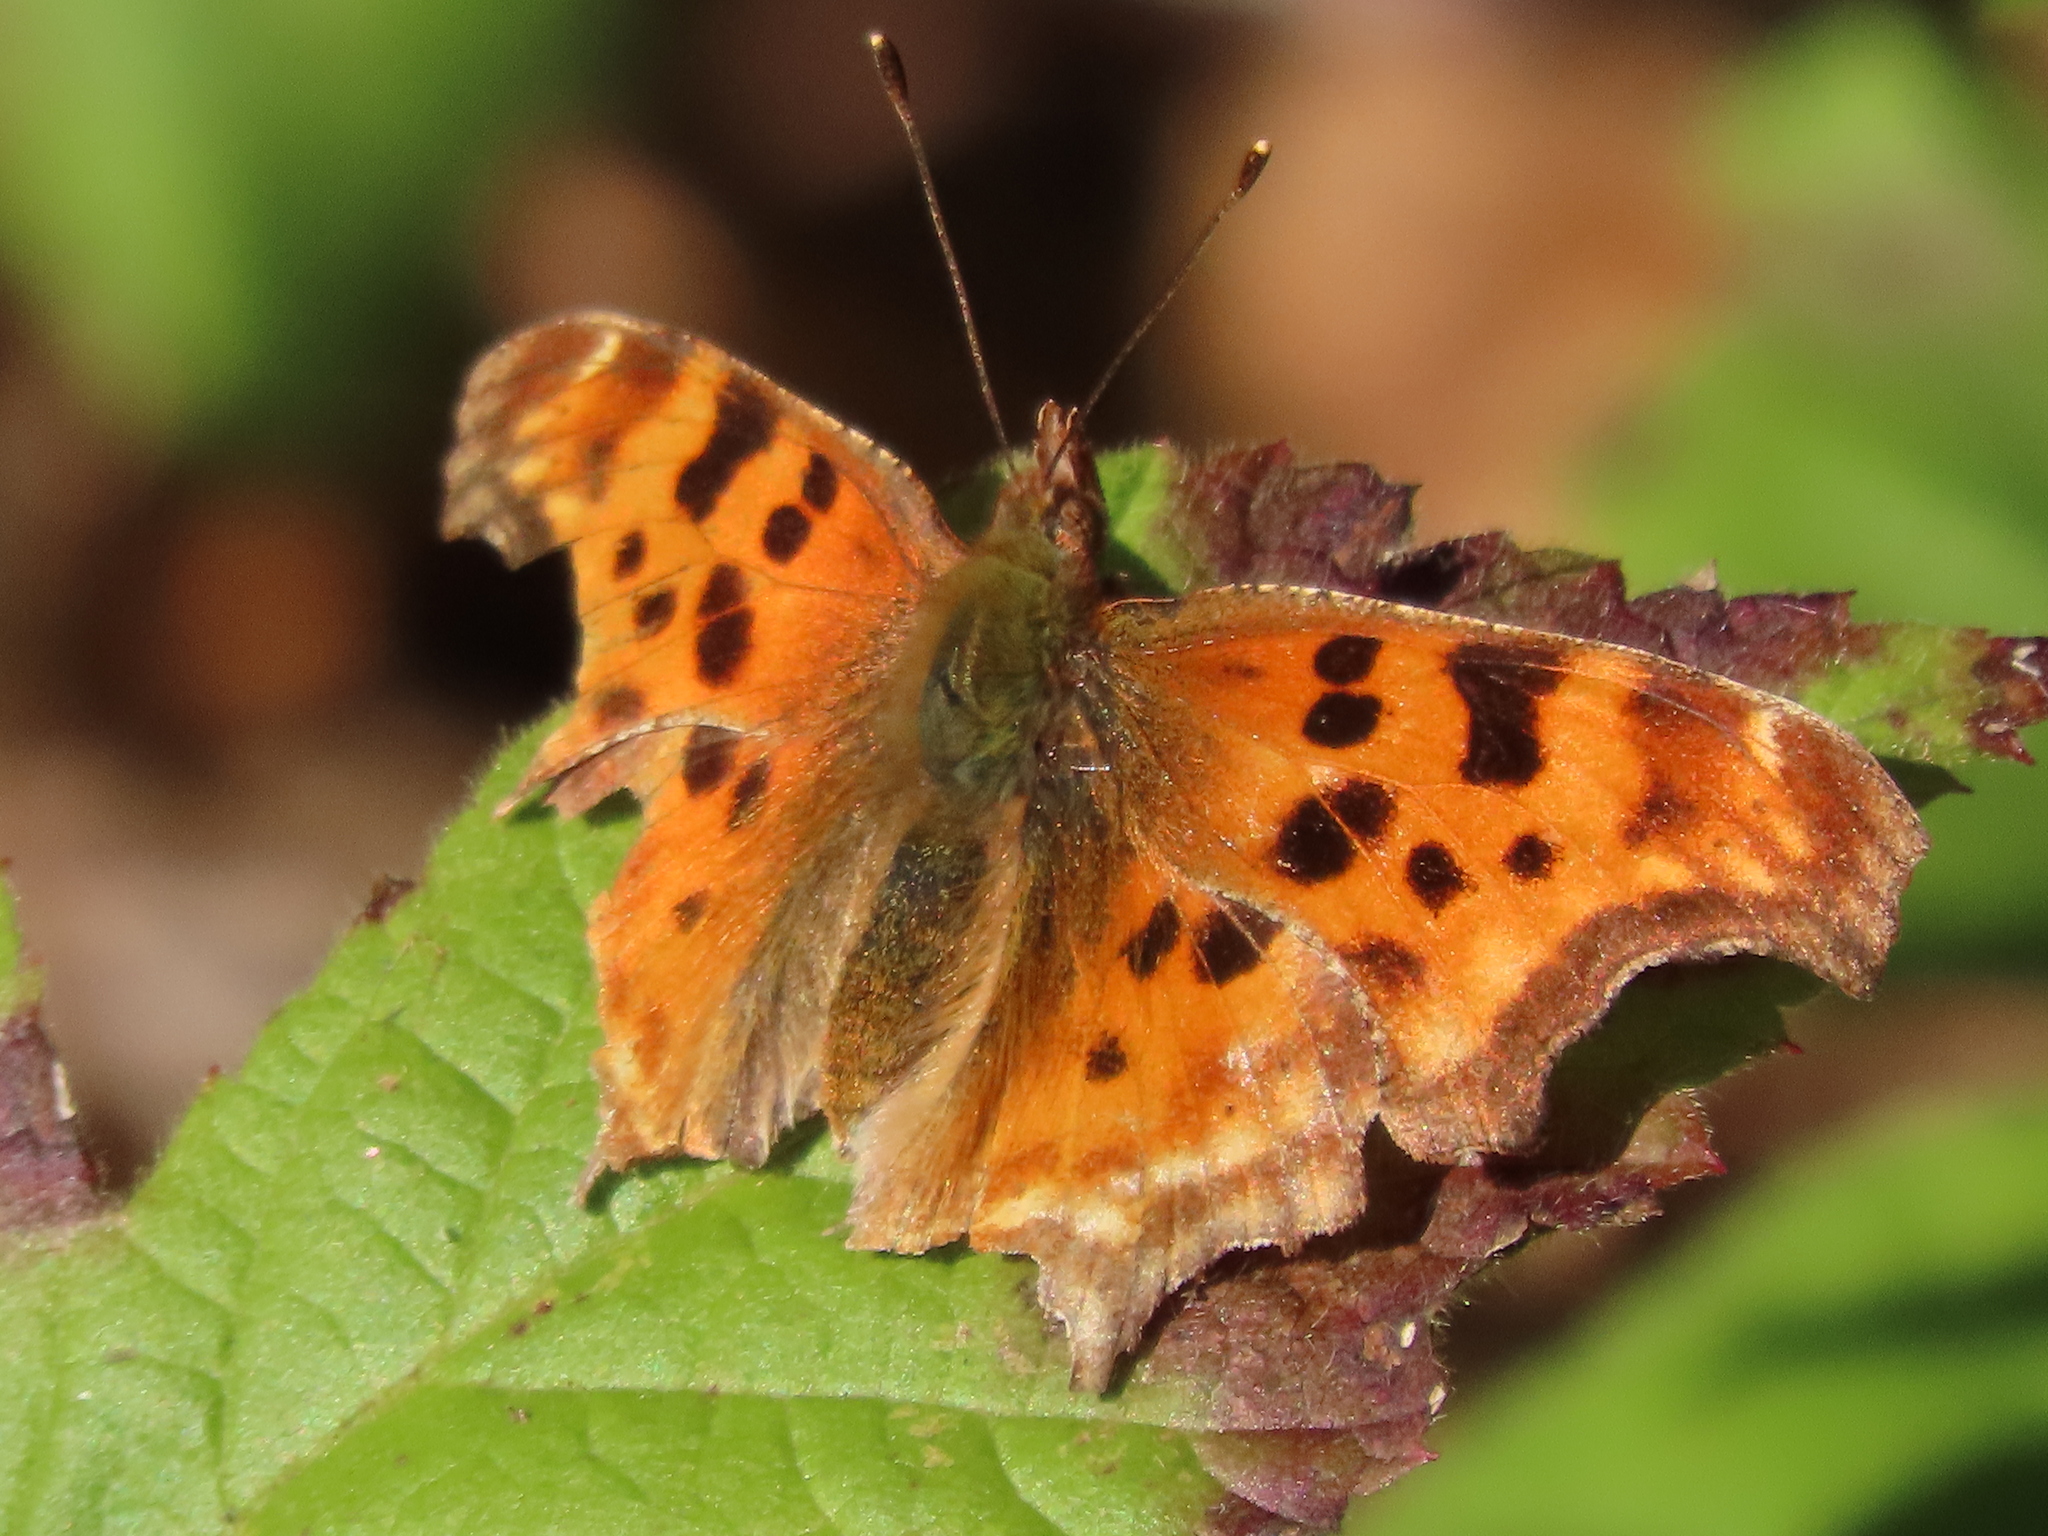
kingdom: Animalia
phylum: Arthropoda
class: Insecta
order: Lepidoptera
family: Nymphalidae
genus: Polygonia
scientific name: Polygonia satyrus
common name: Satyr angle wing
